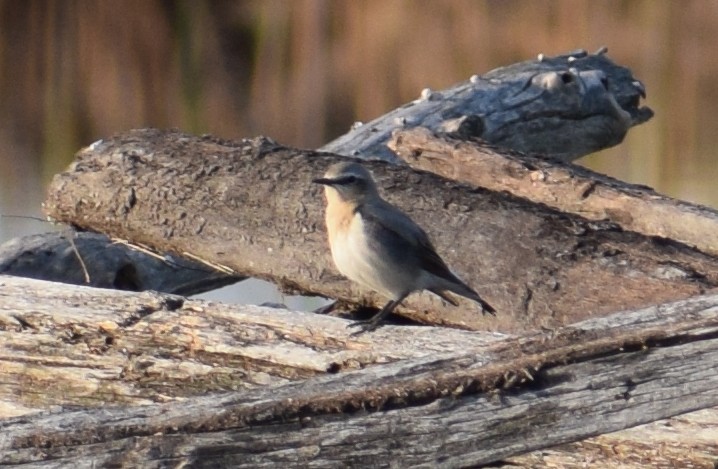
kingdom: Animalia
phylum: Chordata
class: Aves
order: Passeriformes
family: Muscicapidae
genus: Oenanthe
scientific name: Oenanthe oenanthe
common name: Northern wheatear
